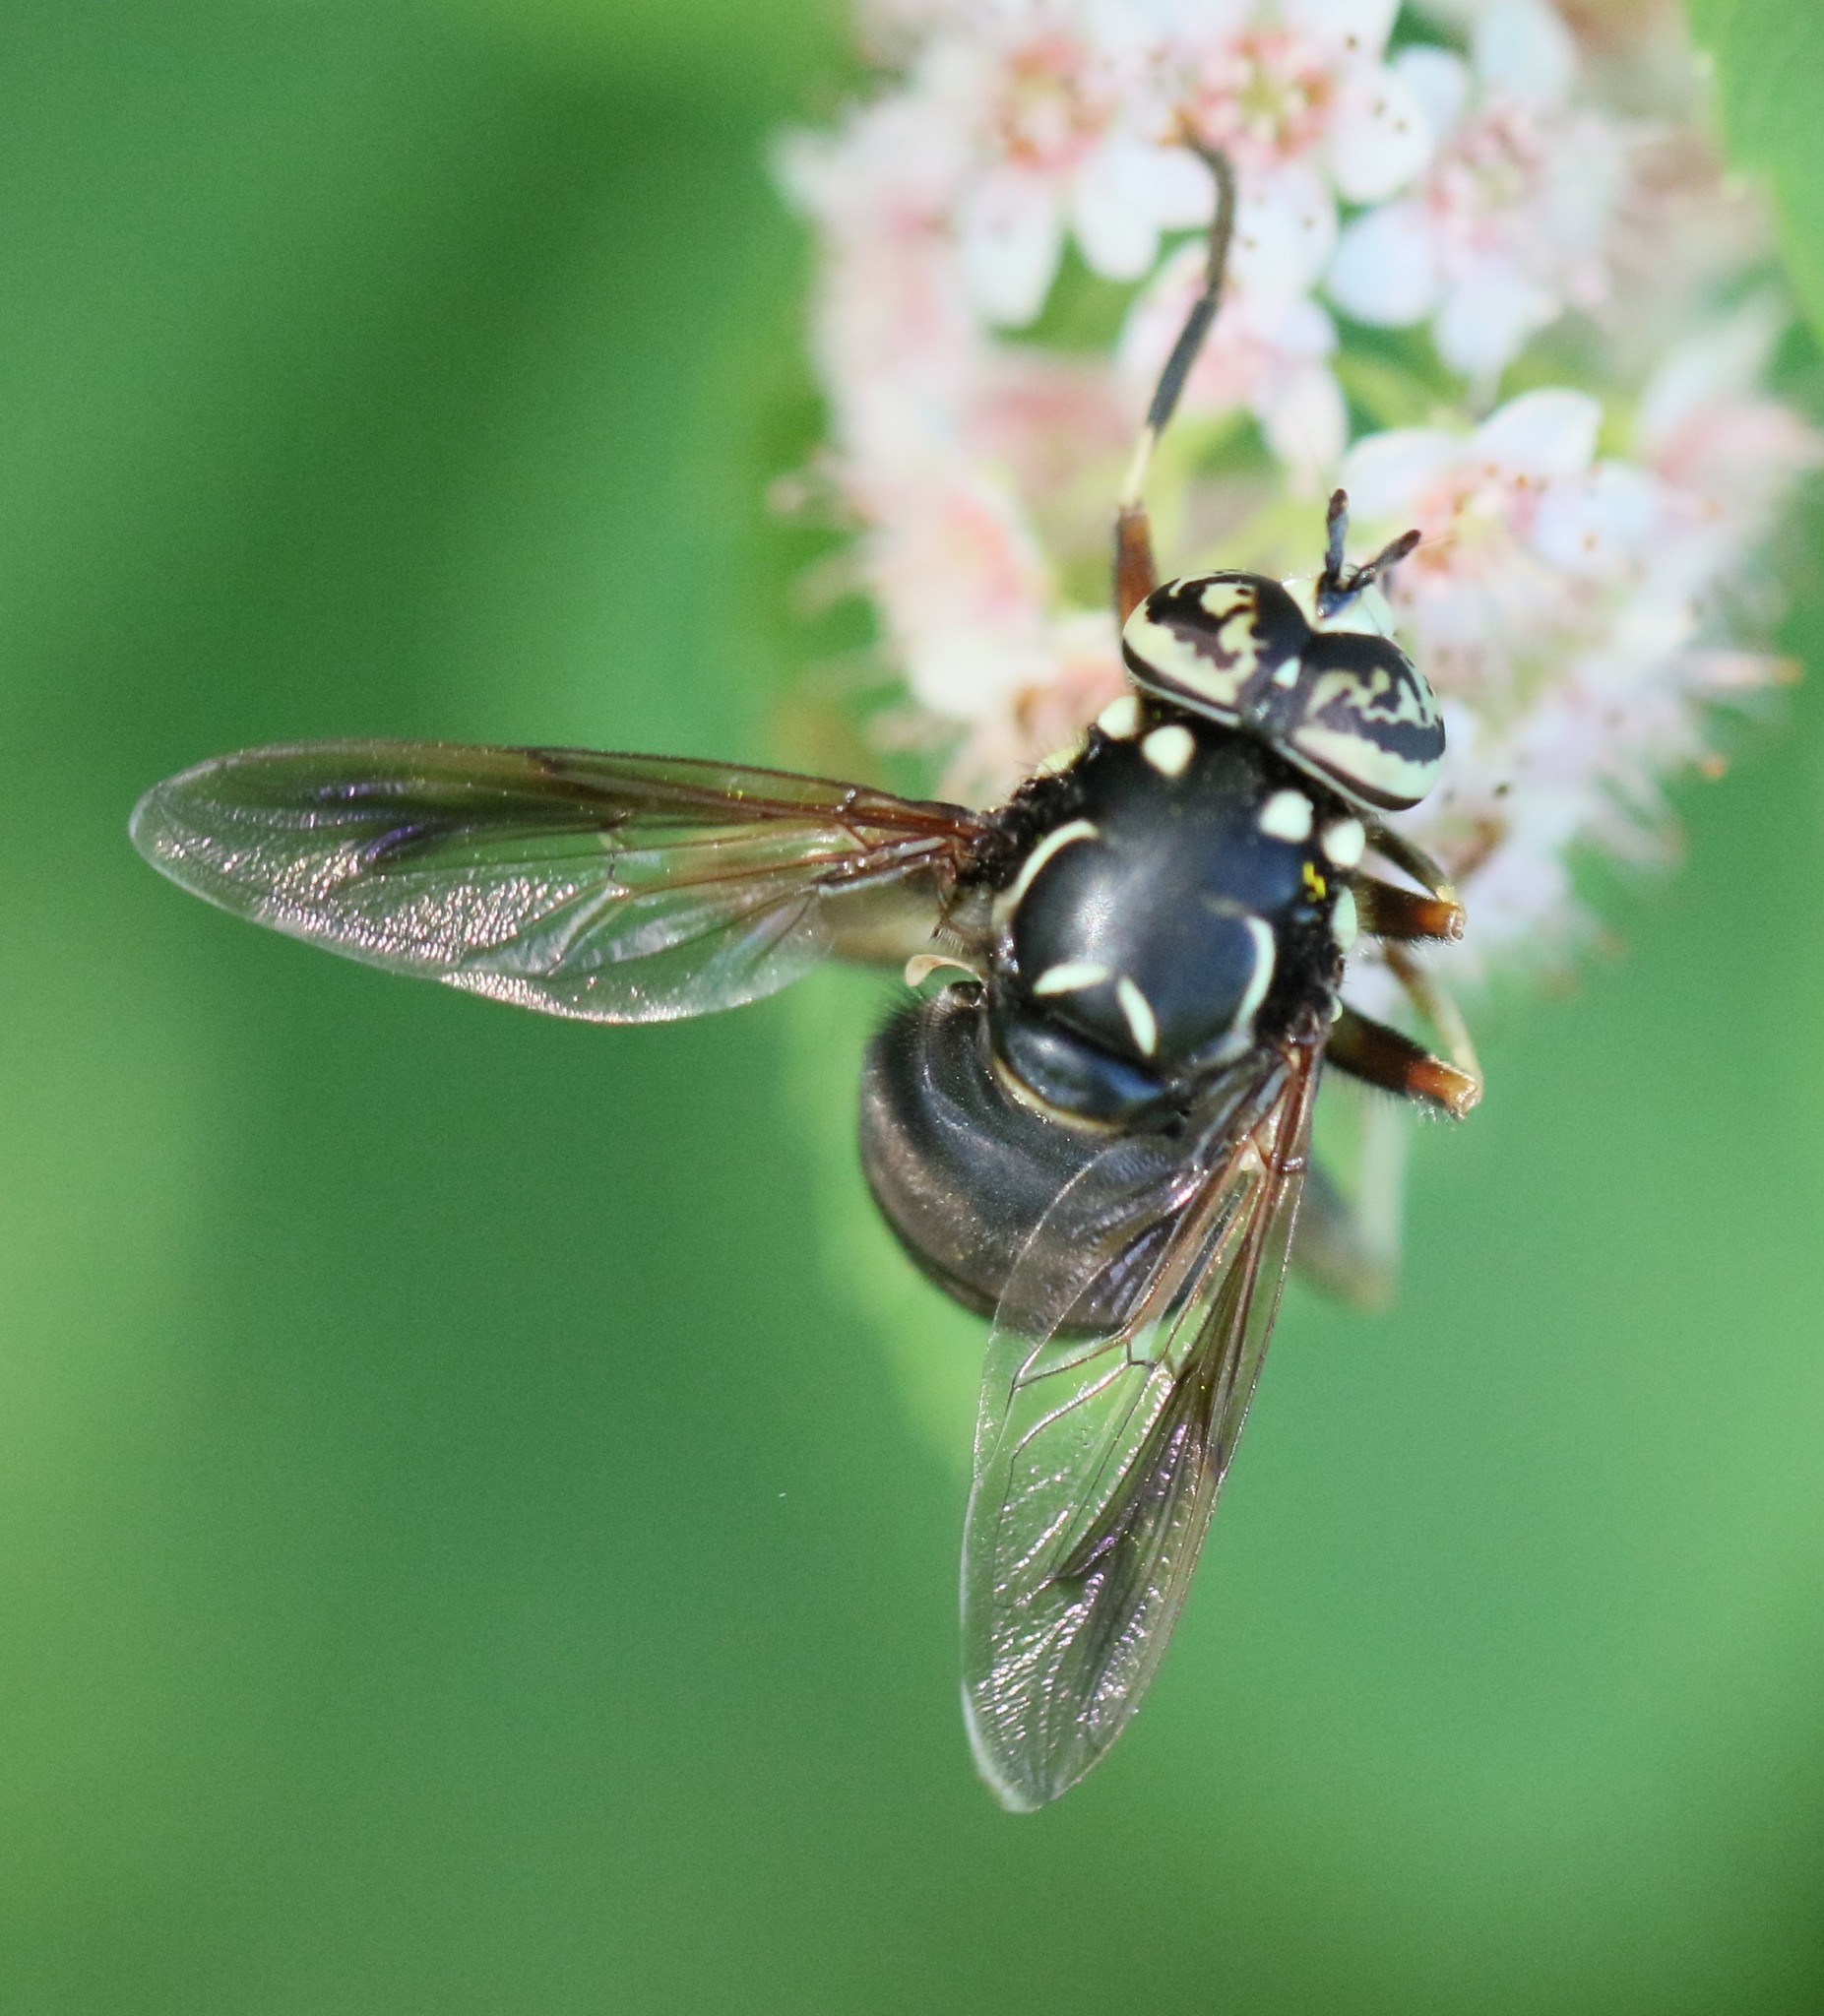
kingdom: Animalia
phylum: Arthropoda
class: Insecta
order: Diptera
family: Syrphidae
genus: Spilomyia
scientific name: Spilomyia fusca
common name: Bald-faced hornet fly
